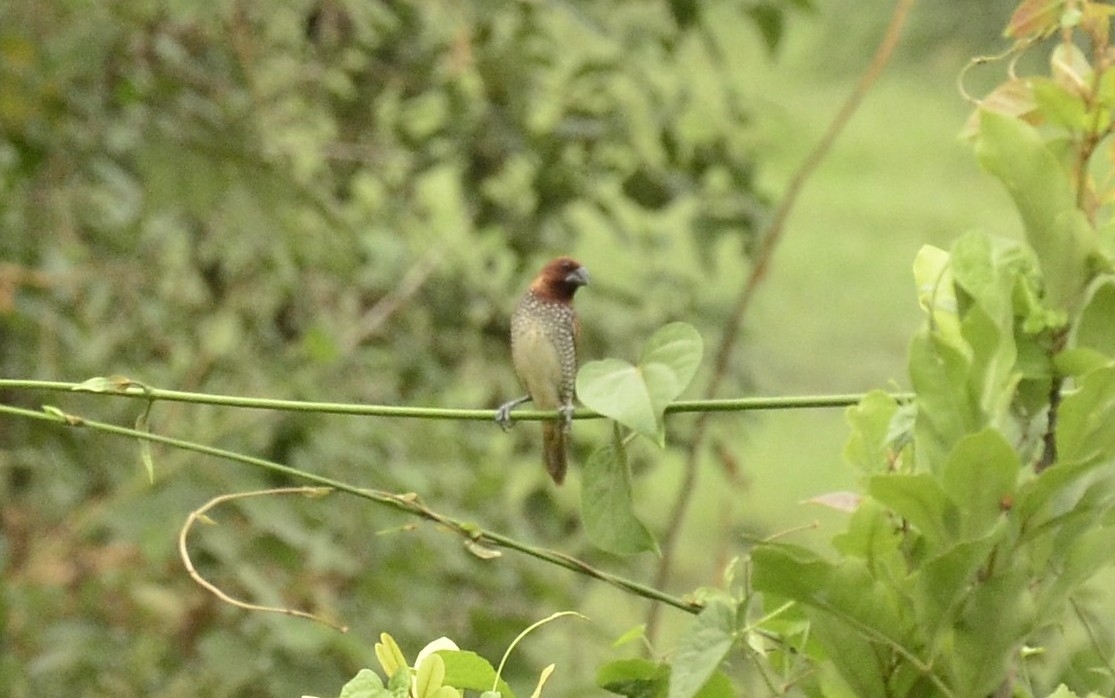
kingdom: Animalia
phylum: Chordata
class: Aves
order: Passeriformes
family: Estrildidae
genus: Lonchura
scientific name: Lonchura punctulata
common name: Scaly-breasted munia
